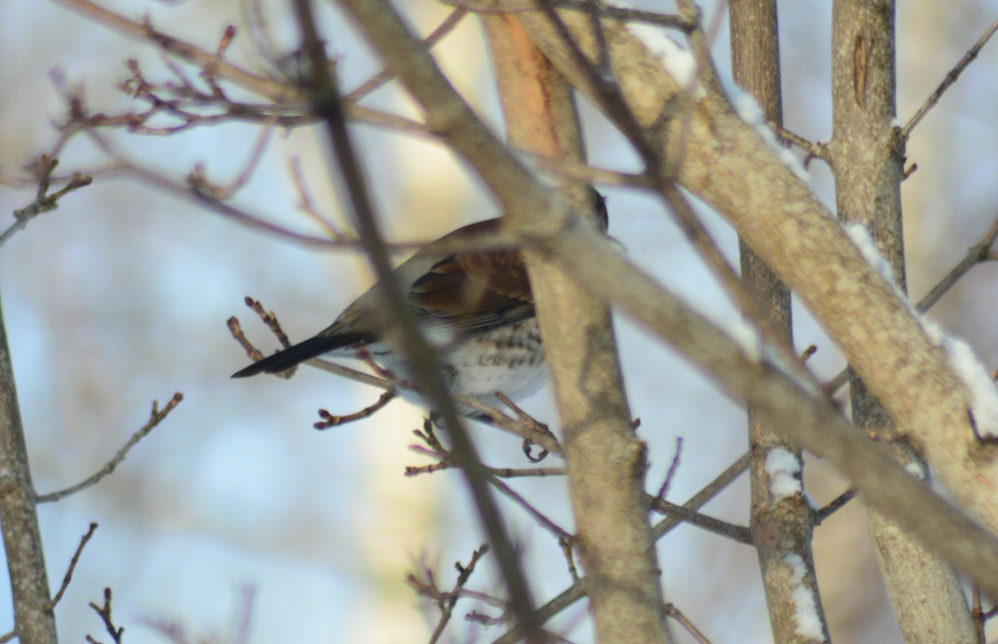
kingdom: Animalia
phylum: Chordata
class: Aves
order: Passeriformes
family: Turdidae
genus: Turdus
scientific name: Turdus pilaris
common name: Fieldfare
